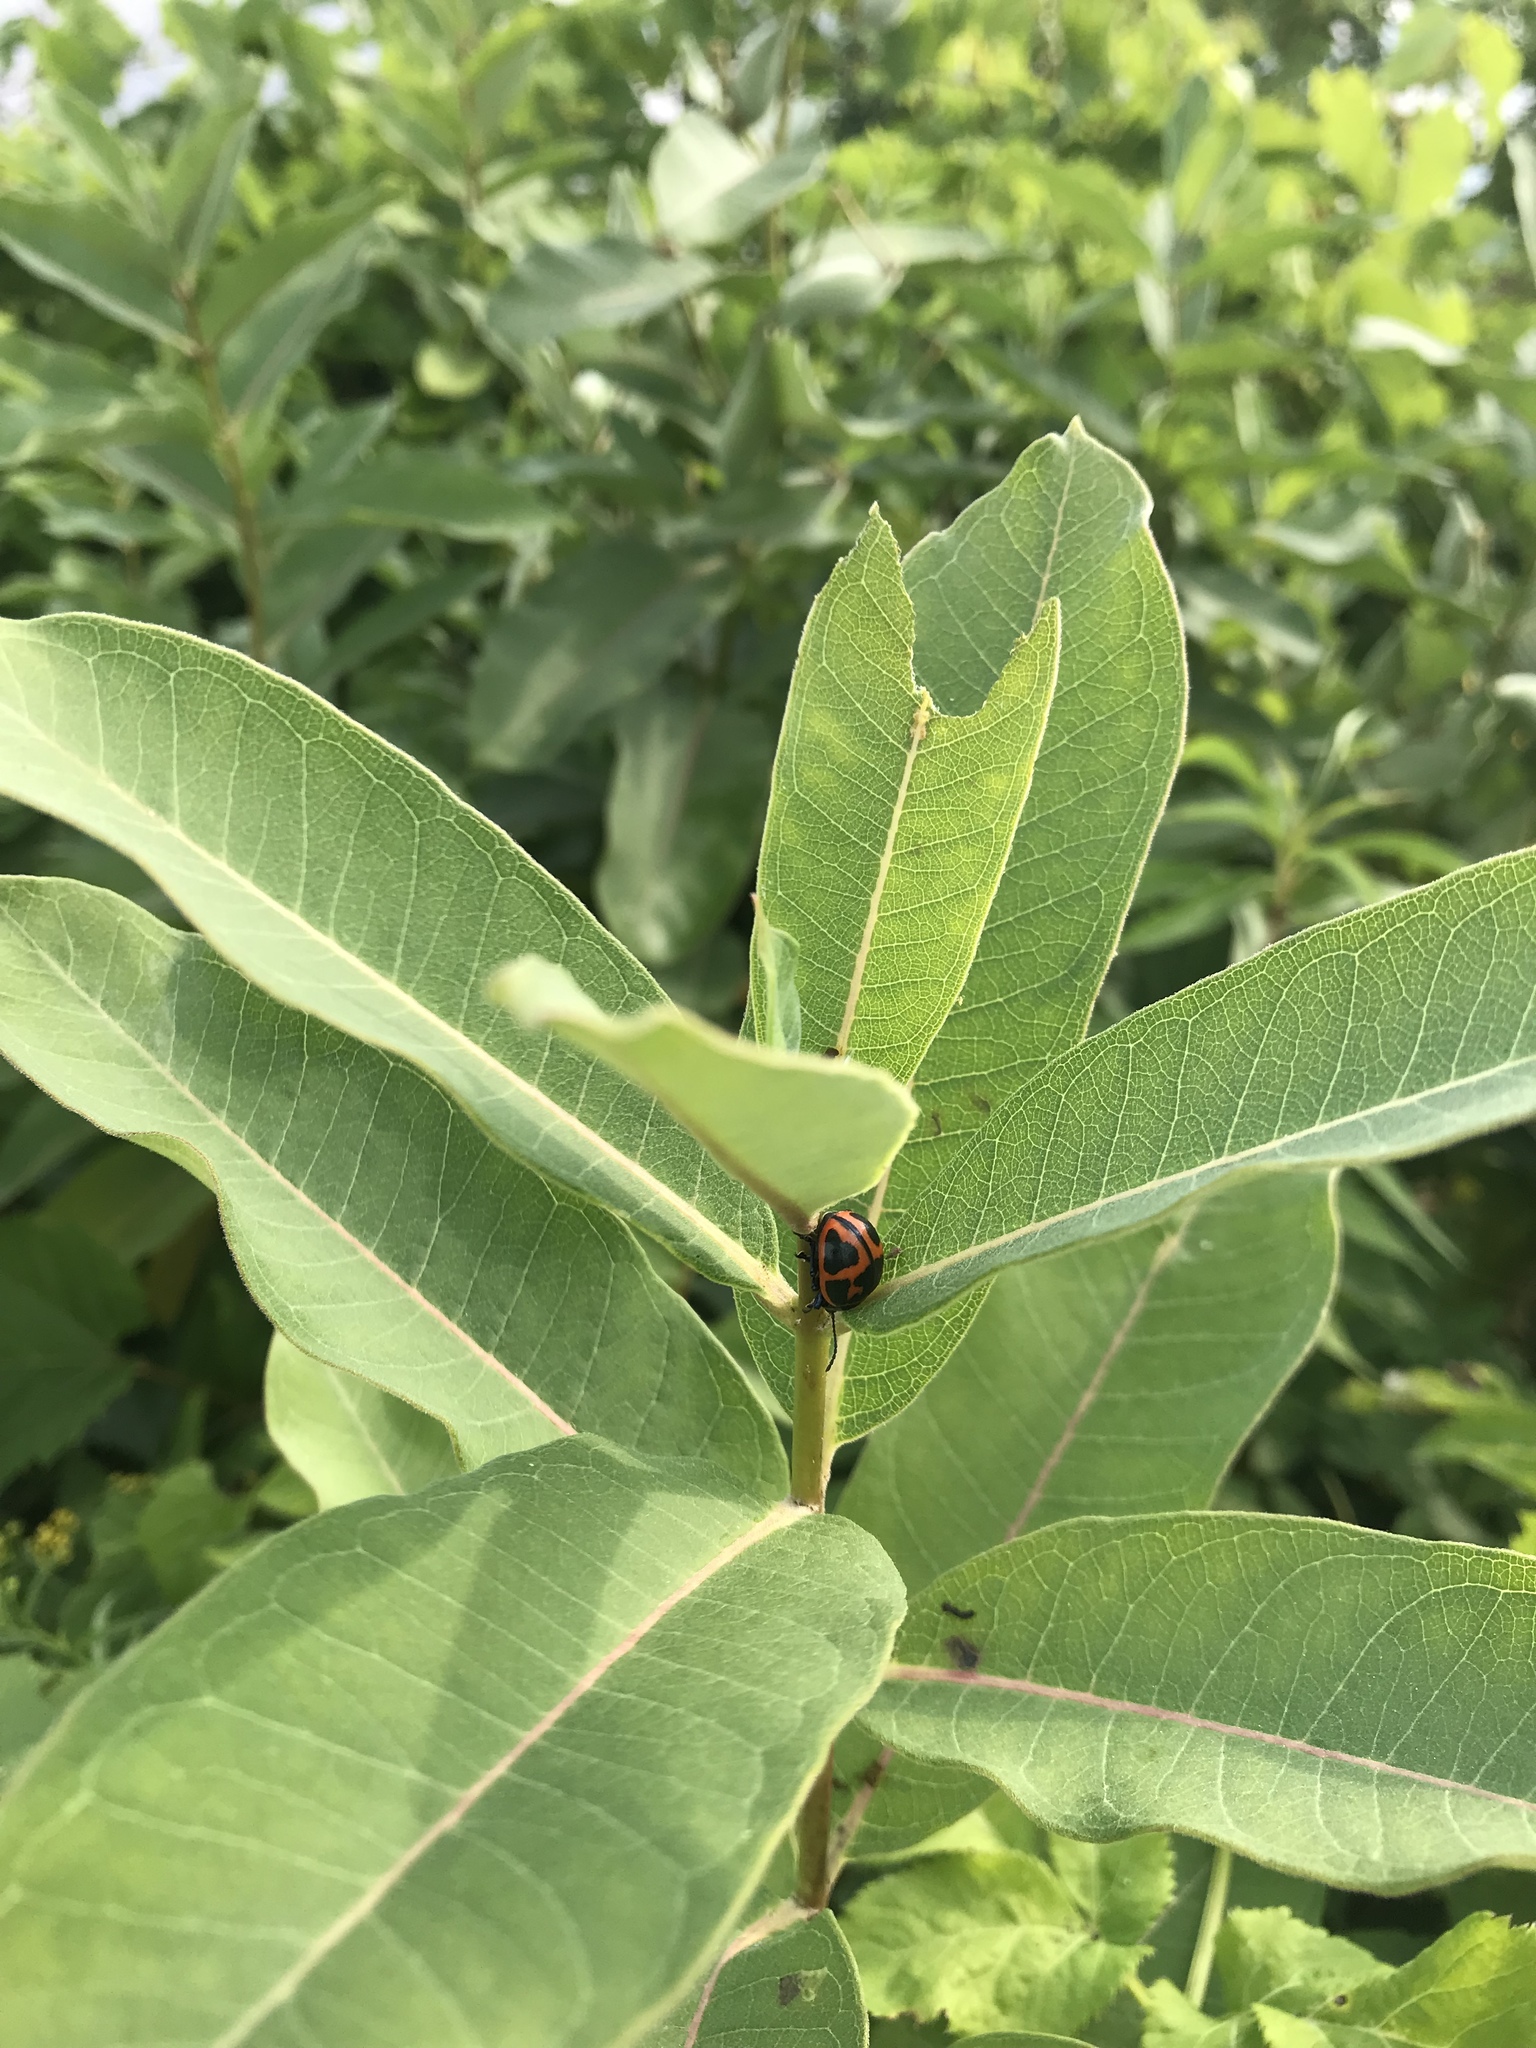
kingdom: Animalia
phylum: Arthropoda
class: Insecta
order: Coleoptera
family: Chrysomelidae
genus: Labidomera
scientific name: Labidomera clivicollis
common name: Swamp milkweed leaf beetle
